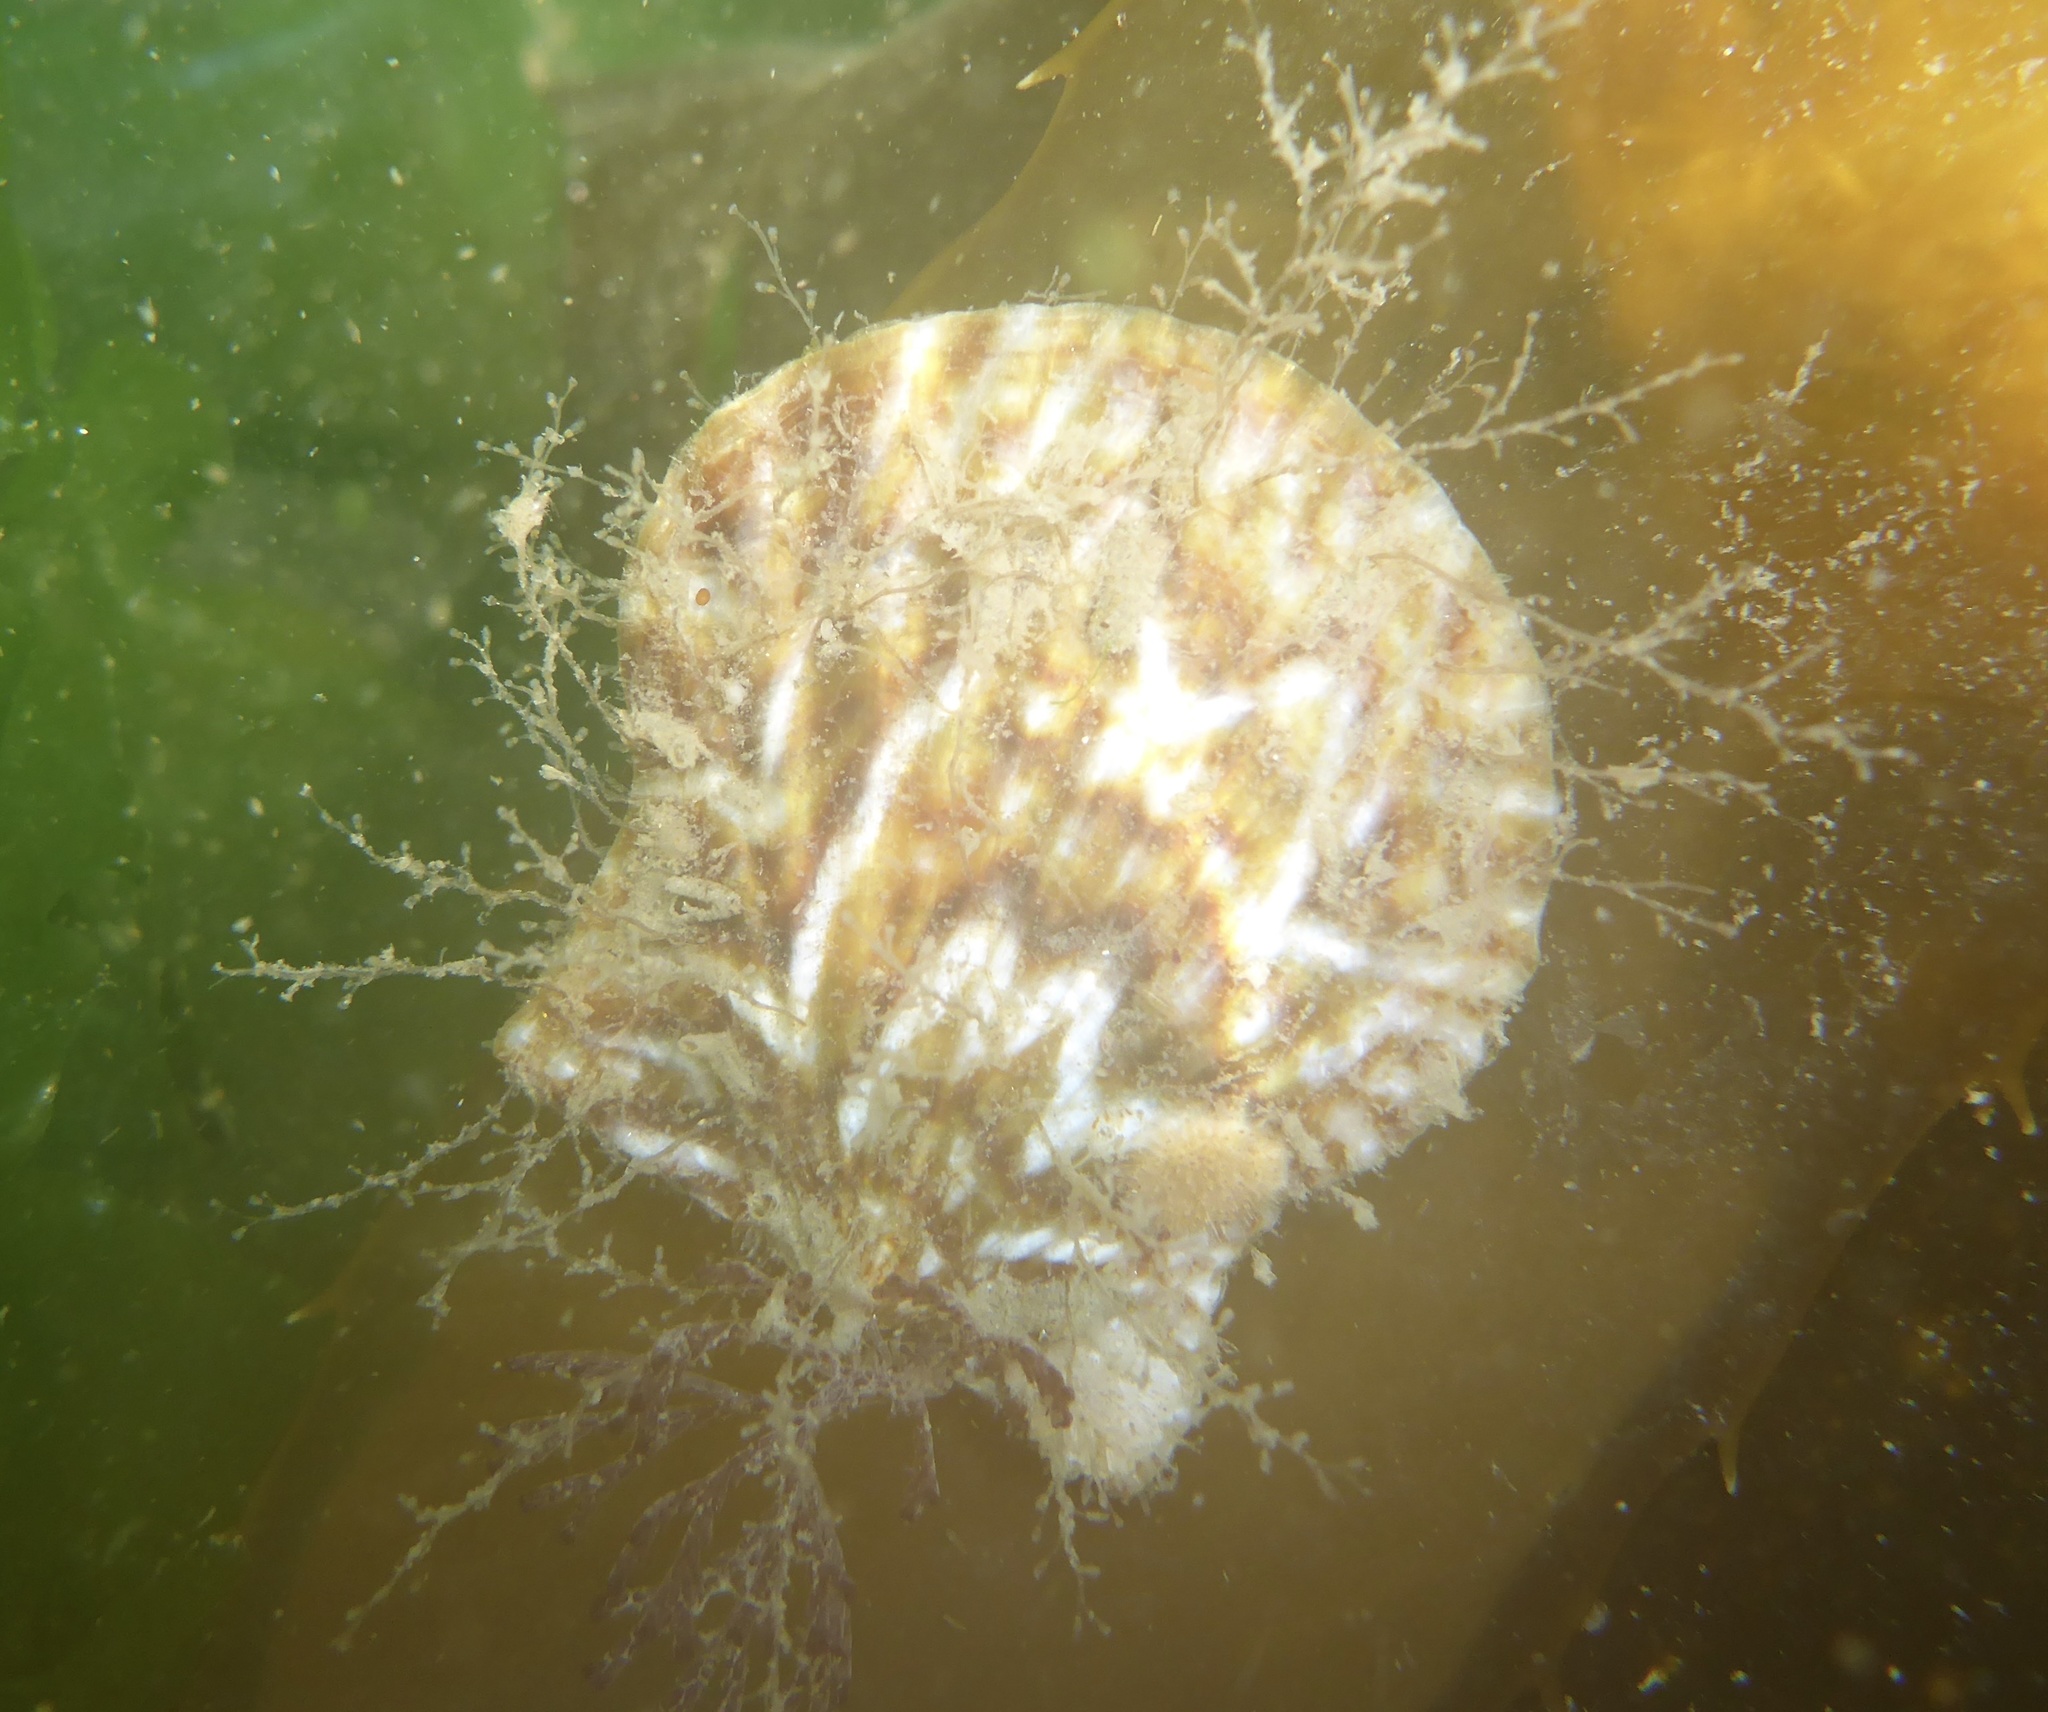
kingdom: Animalia
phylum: Mollusca
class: Bivalvia
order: Pectinida
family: Pectinidae
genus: Leptopecten
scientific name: Leptopecten latiauratus
